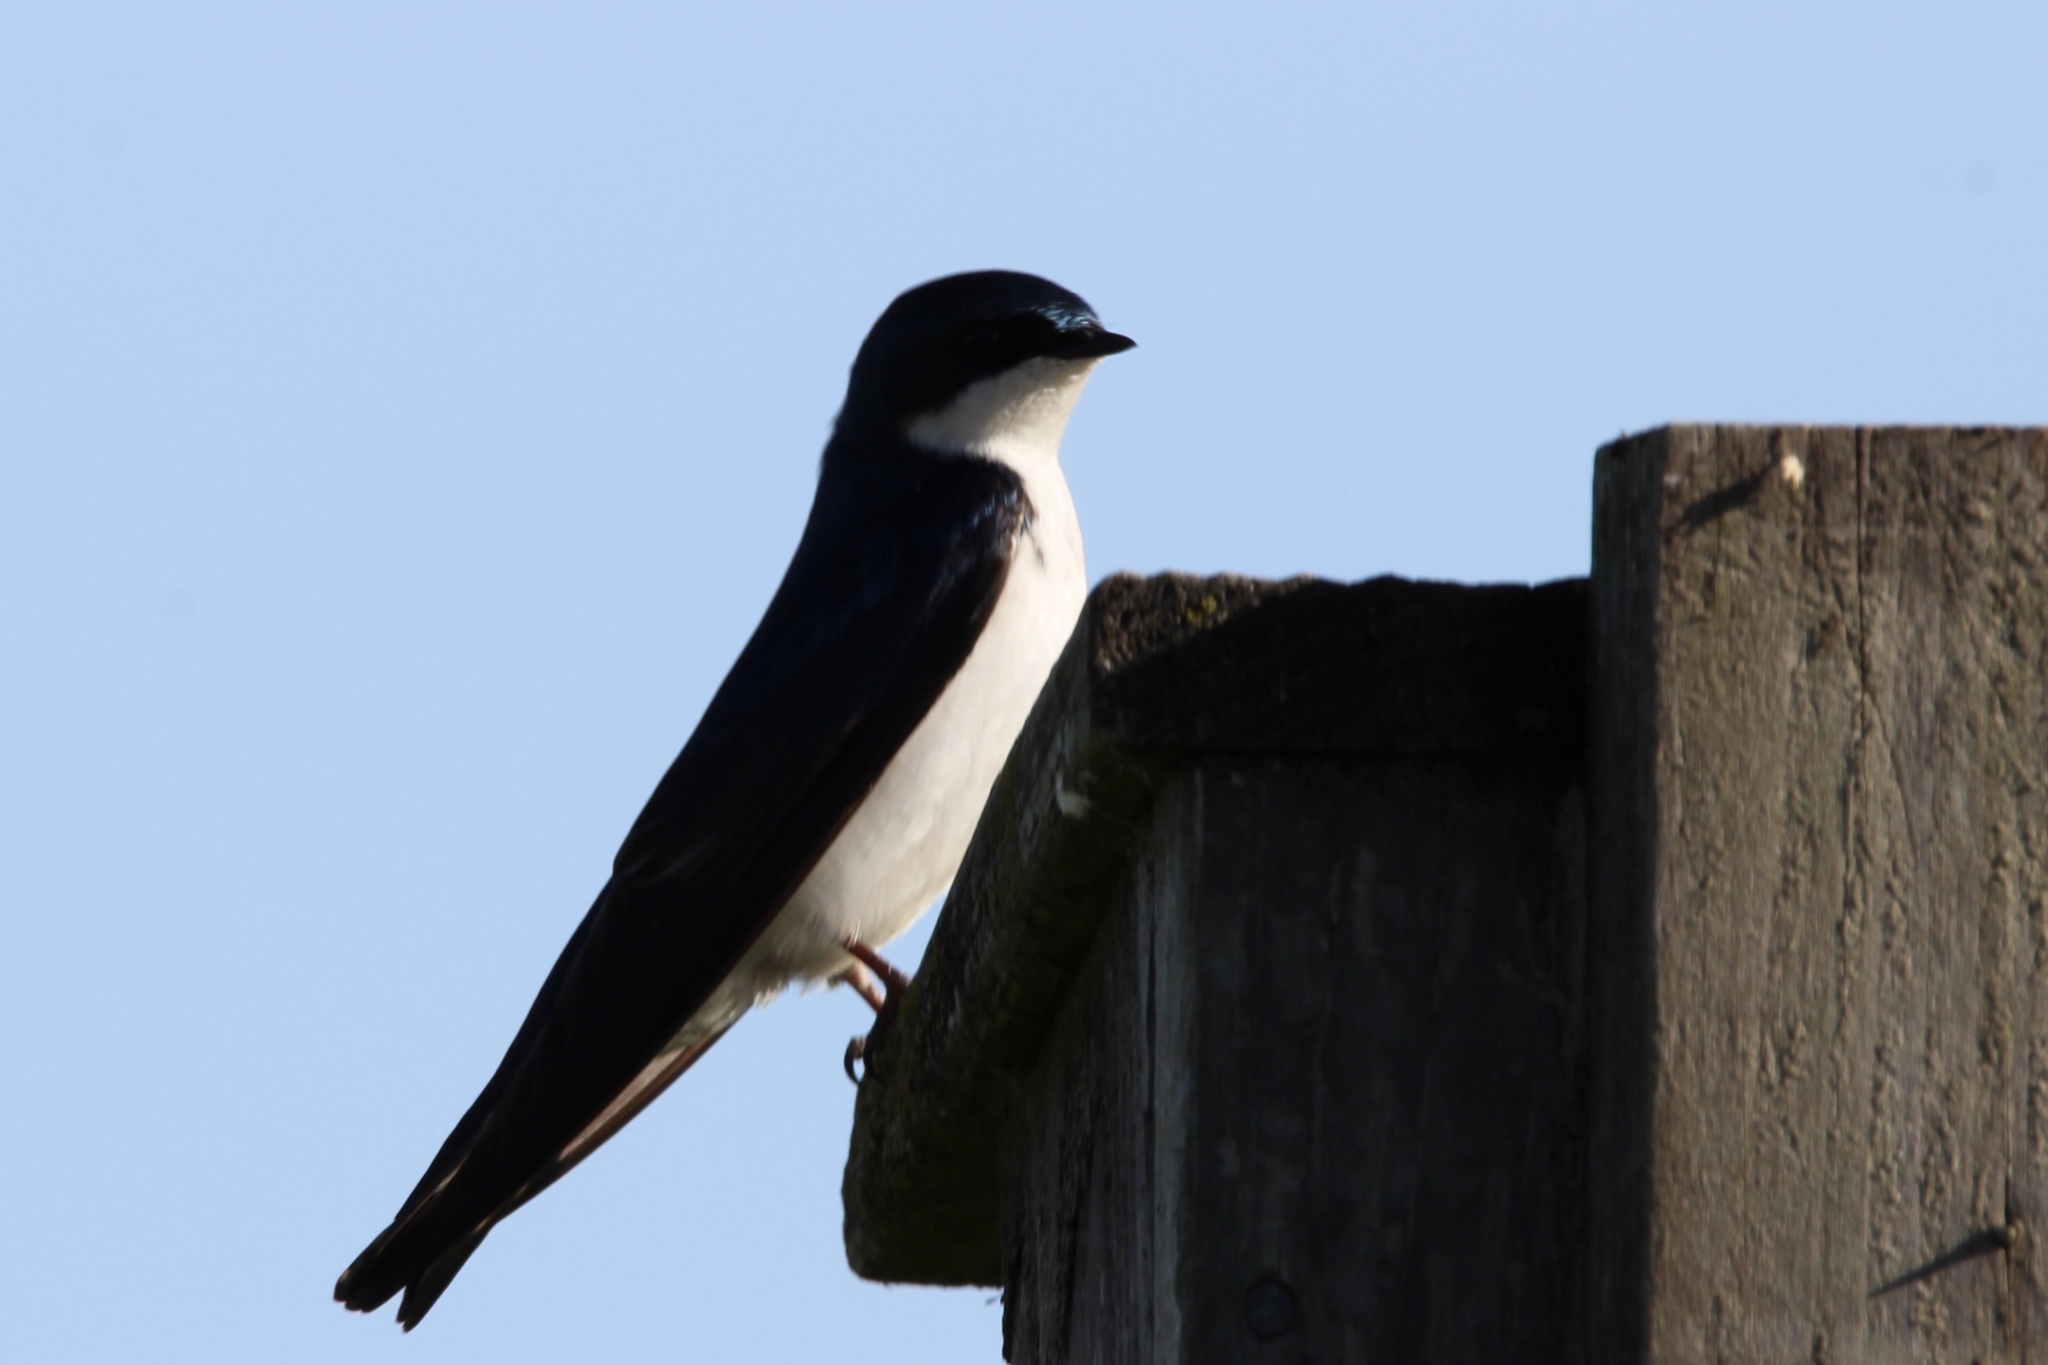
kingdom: Animalia
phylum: Chordata
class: Aves
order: Passeriformes
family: Hirundinidae
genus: Tachycineta
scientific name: Tachycineta bicolor
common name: Tree swallow
